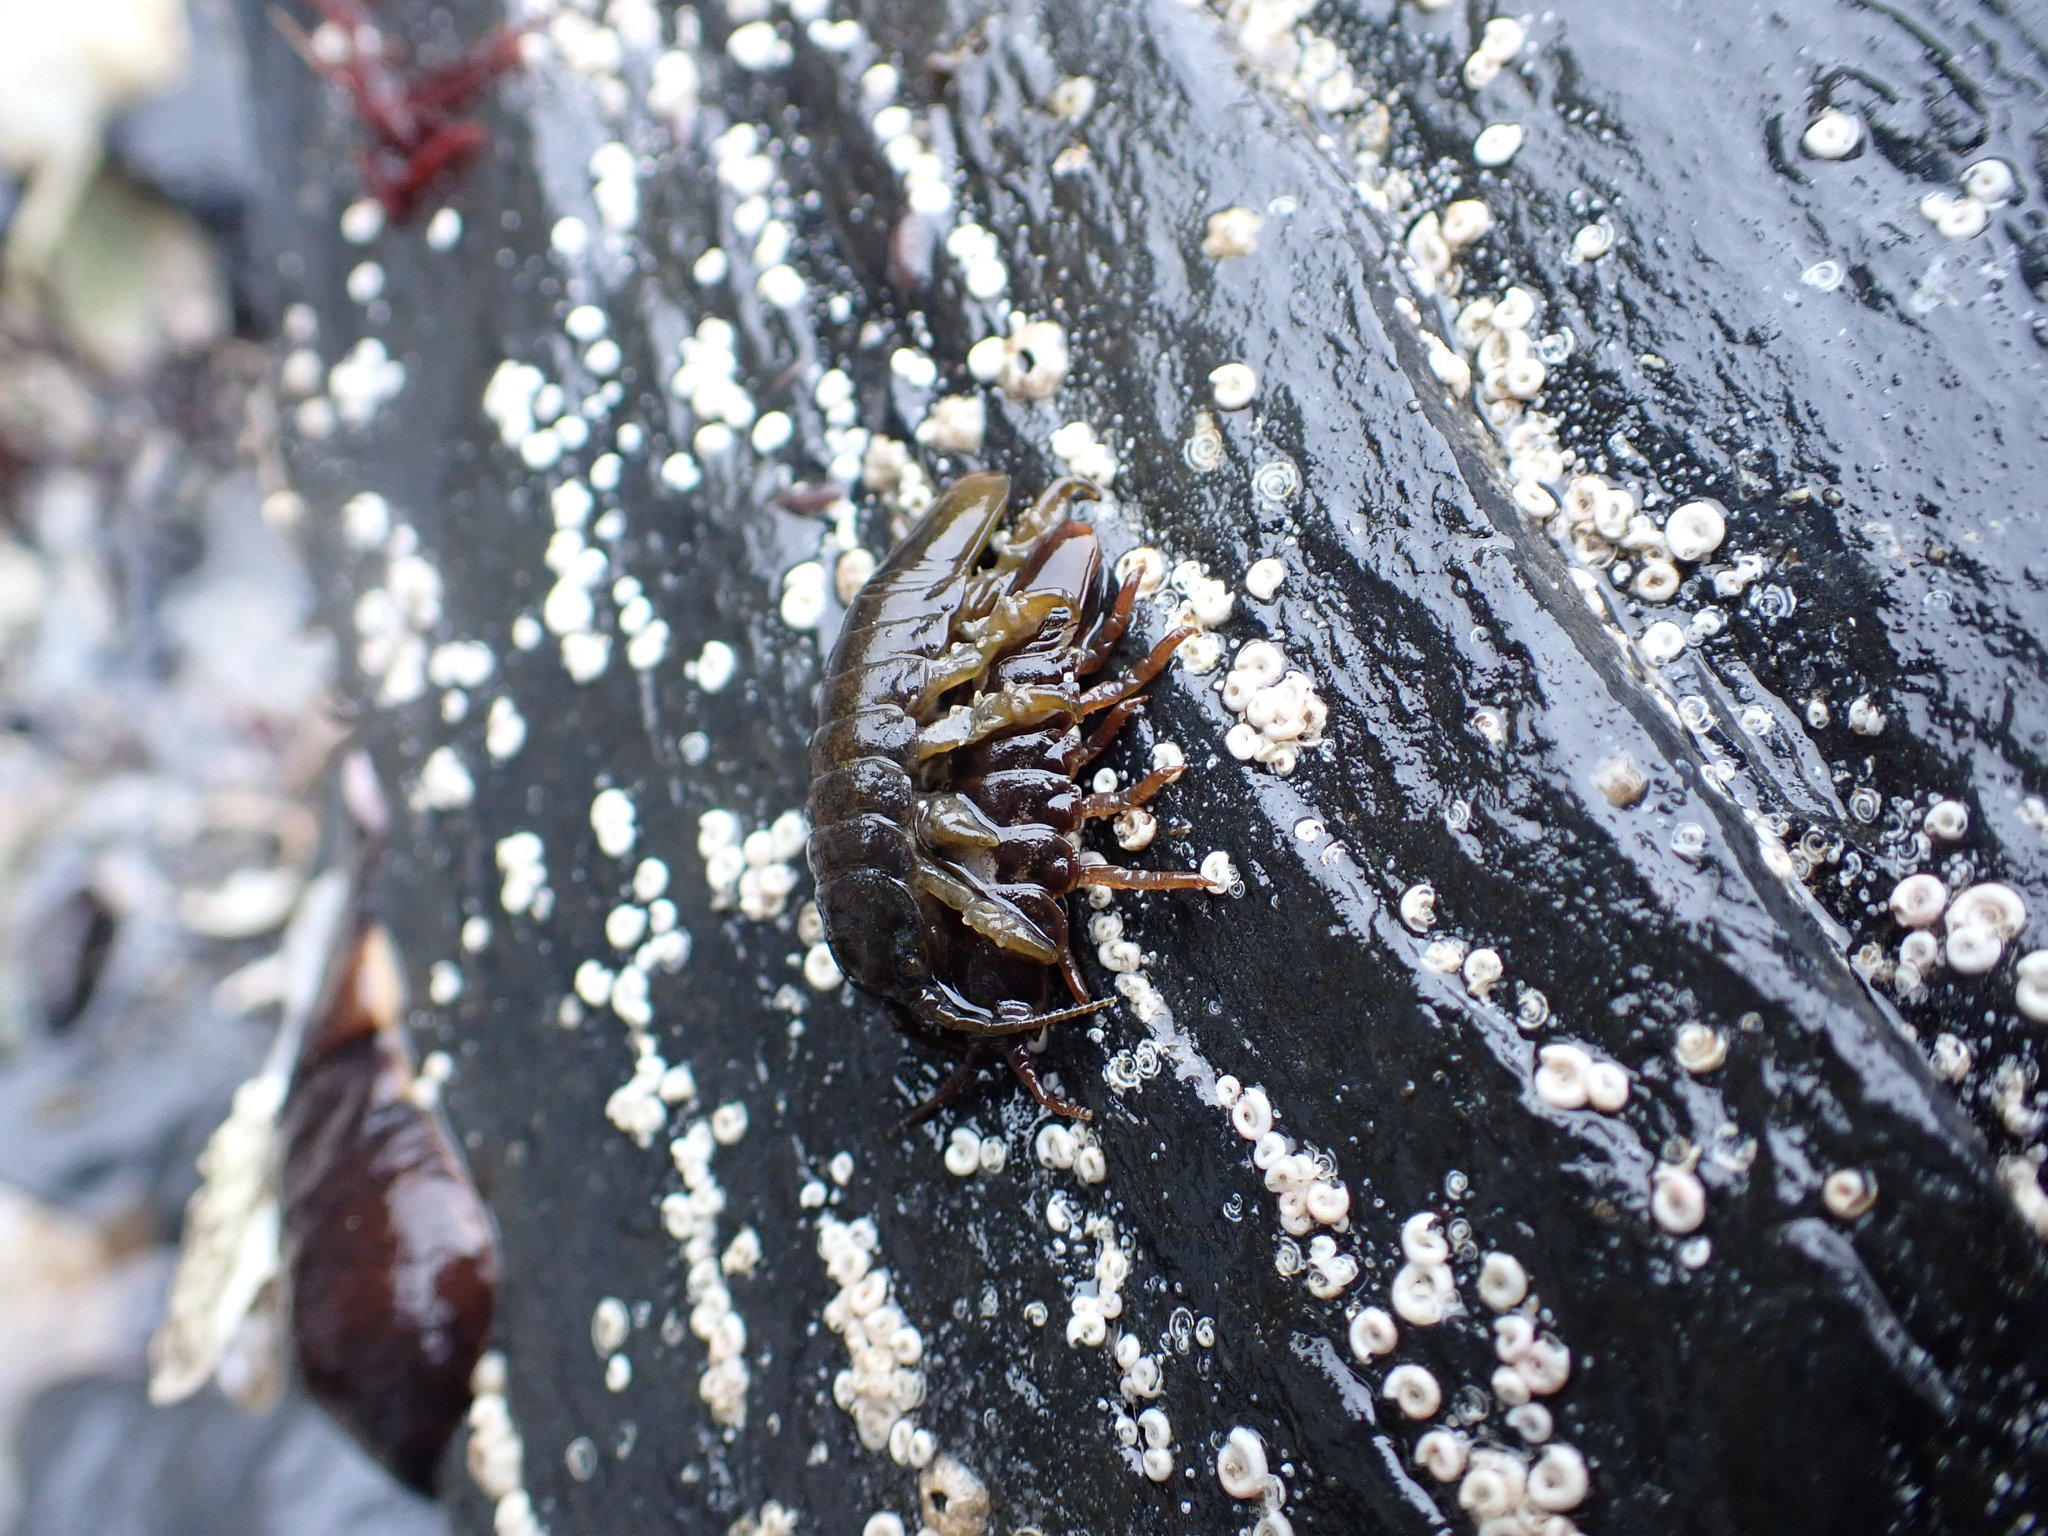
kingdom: Animalia
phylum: Arthropoda
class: Malacostraca
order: Isopoda
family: Idoteidae
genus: Pentidotea
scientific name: Pentidotea wosnesenskii
